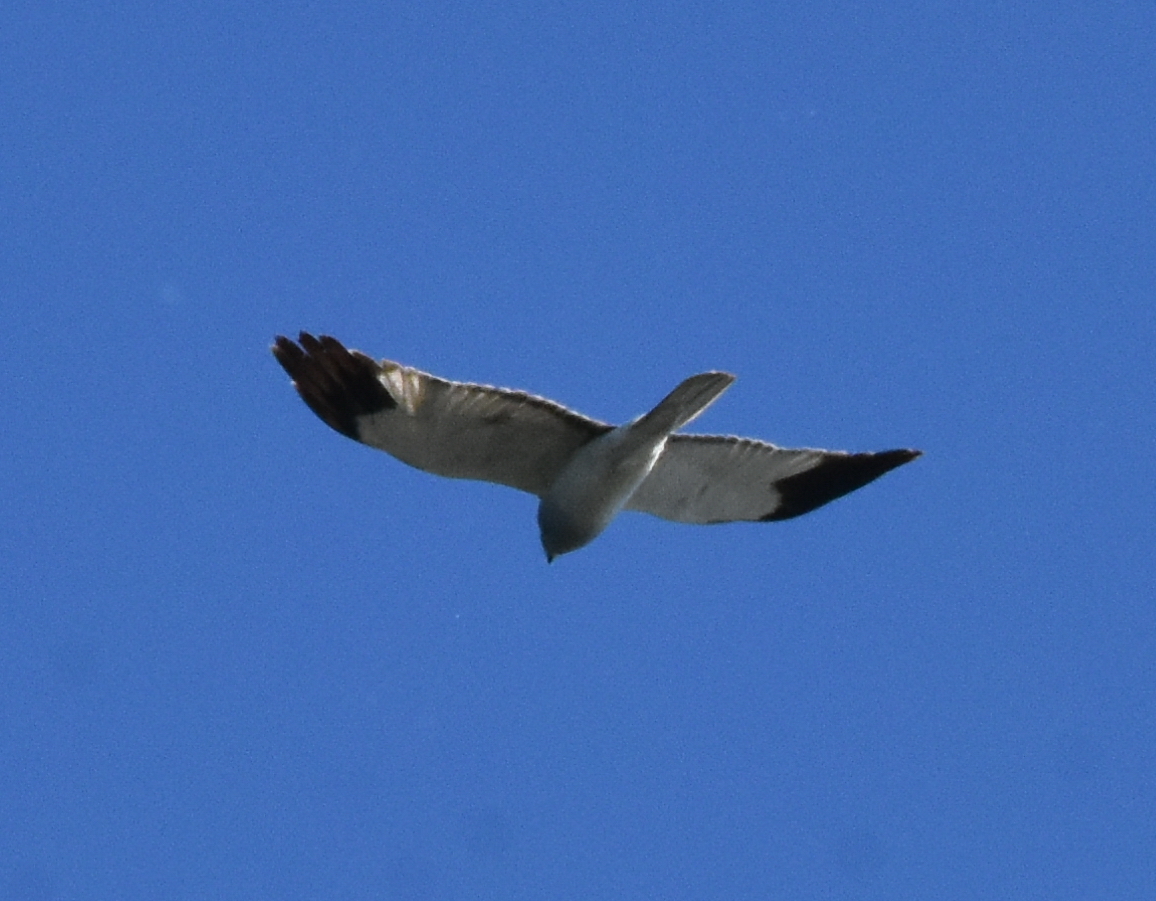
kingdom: Animalia
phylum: Chordata
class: Aves
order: Accipitriformes
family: Accipitridae
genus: Circus
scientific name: Circus cyaneus
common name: Hen harrier
